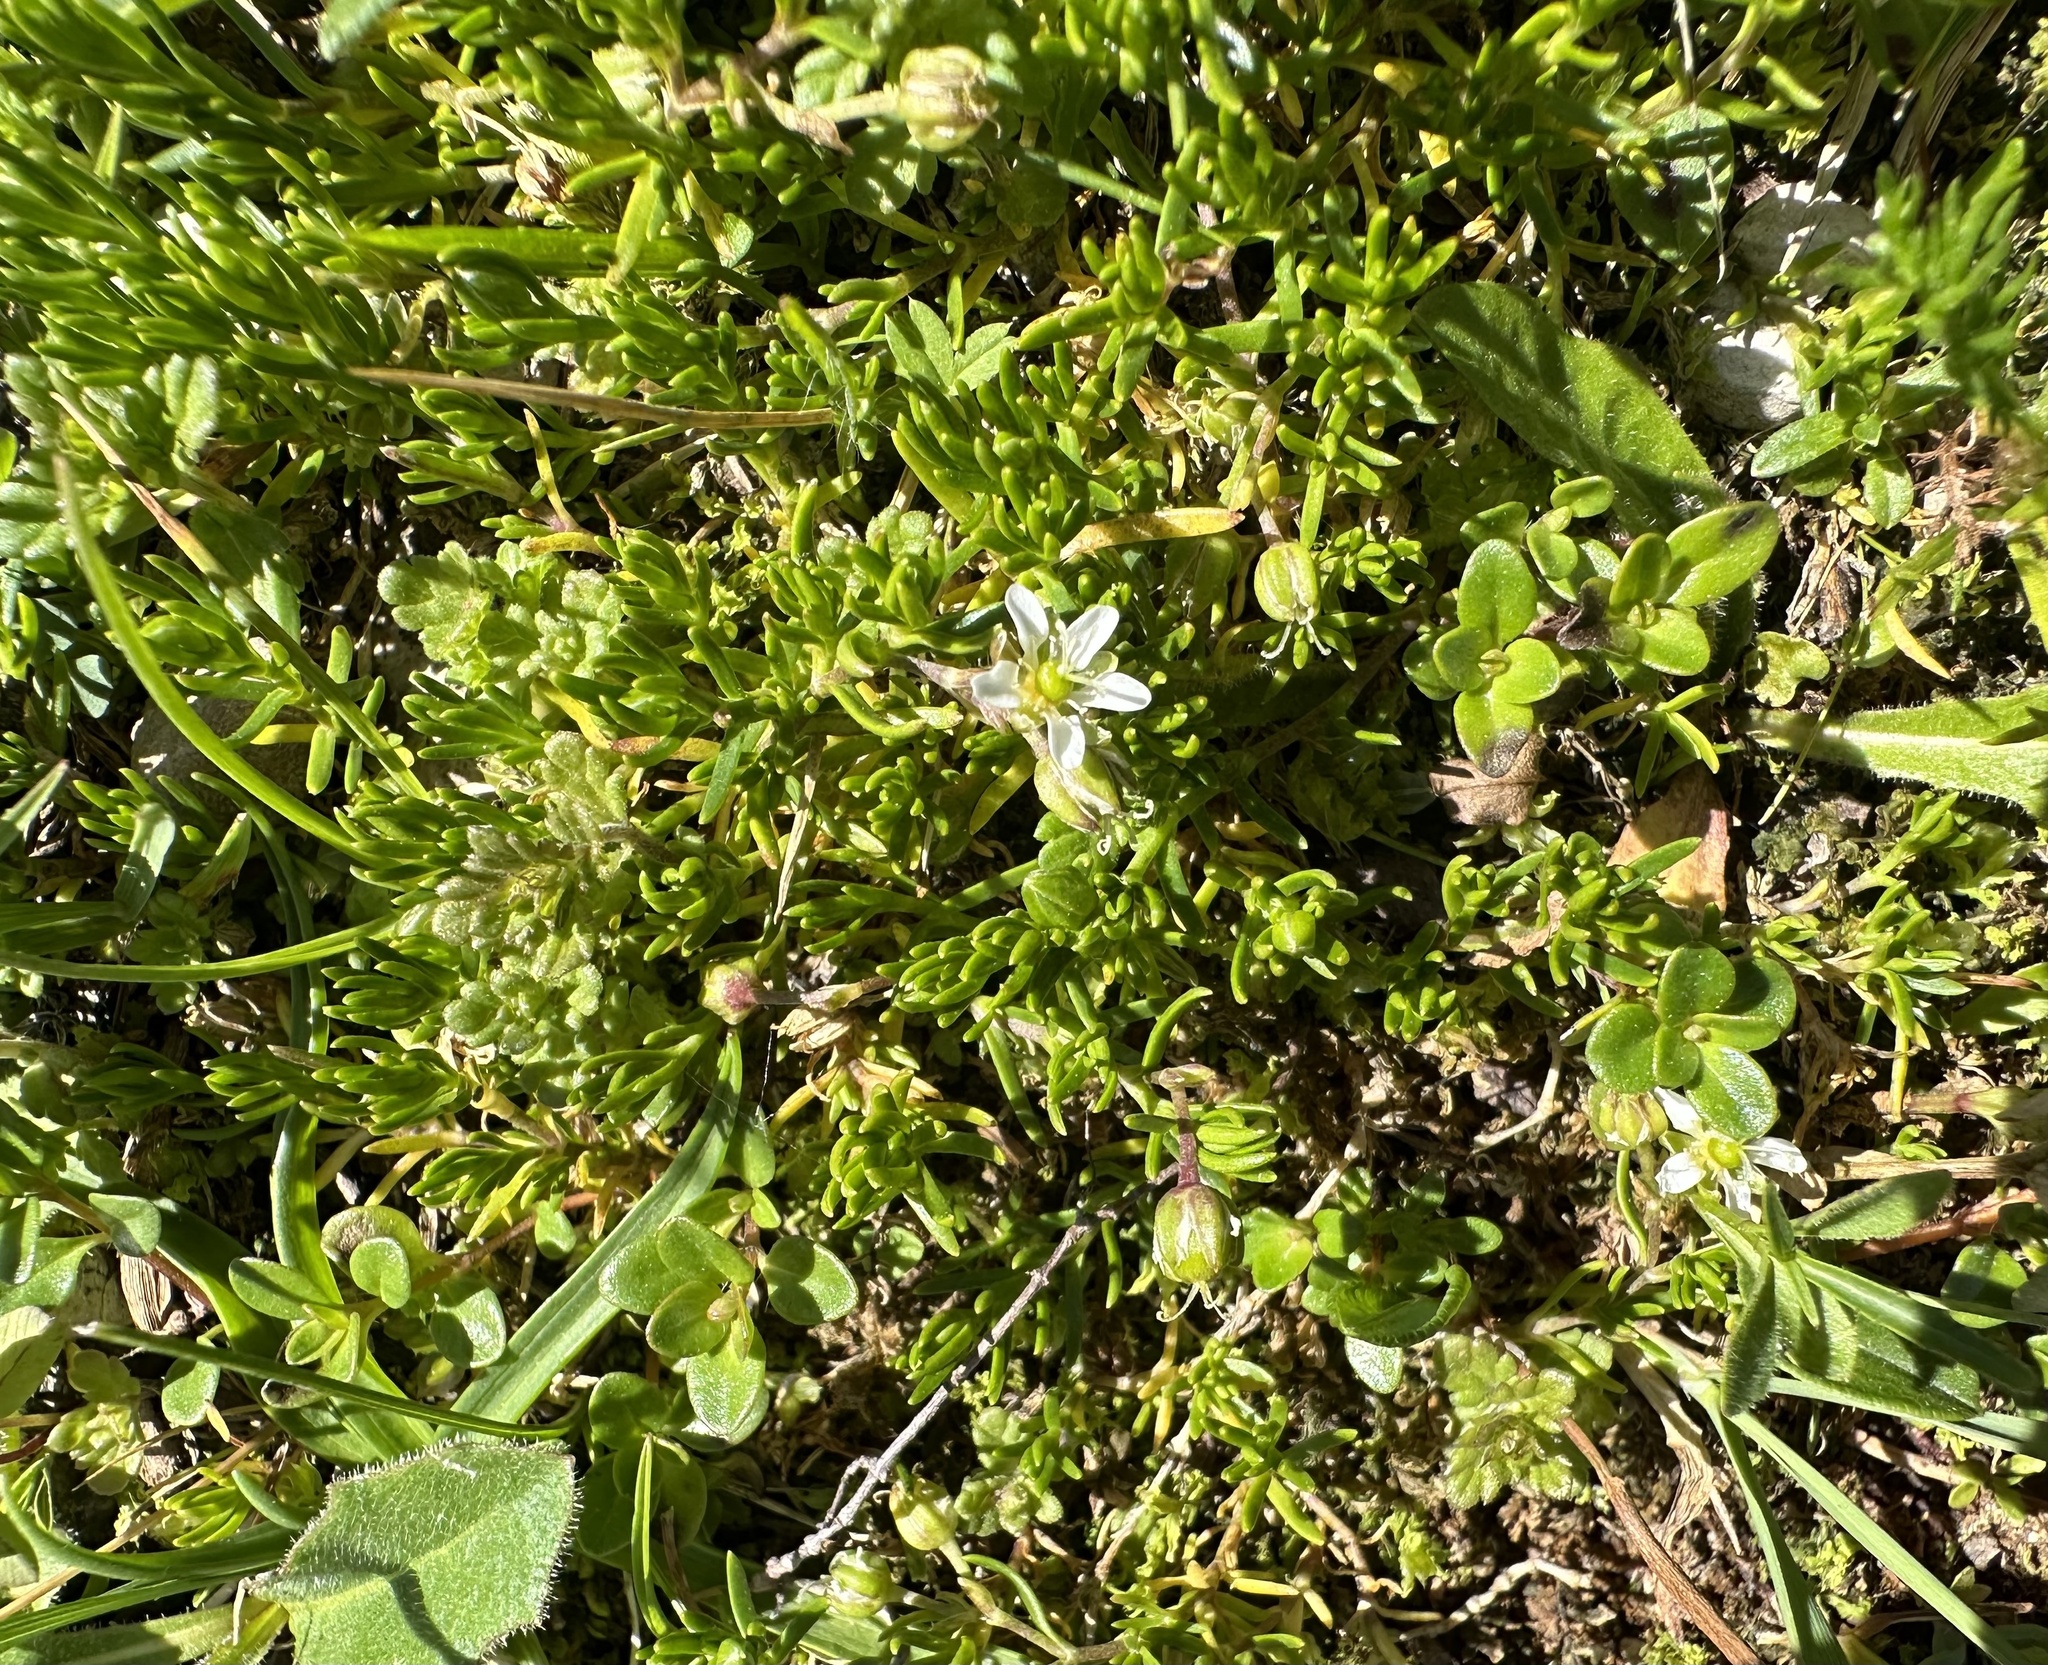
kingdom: Plantae
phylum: Tracheophyta
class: Magnoliopsida
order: Caryophyllales
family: Caryophyllaceae
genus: Moehringia
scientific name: Moehringia ciliata
